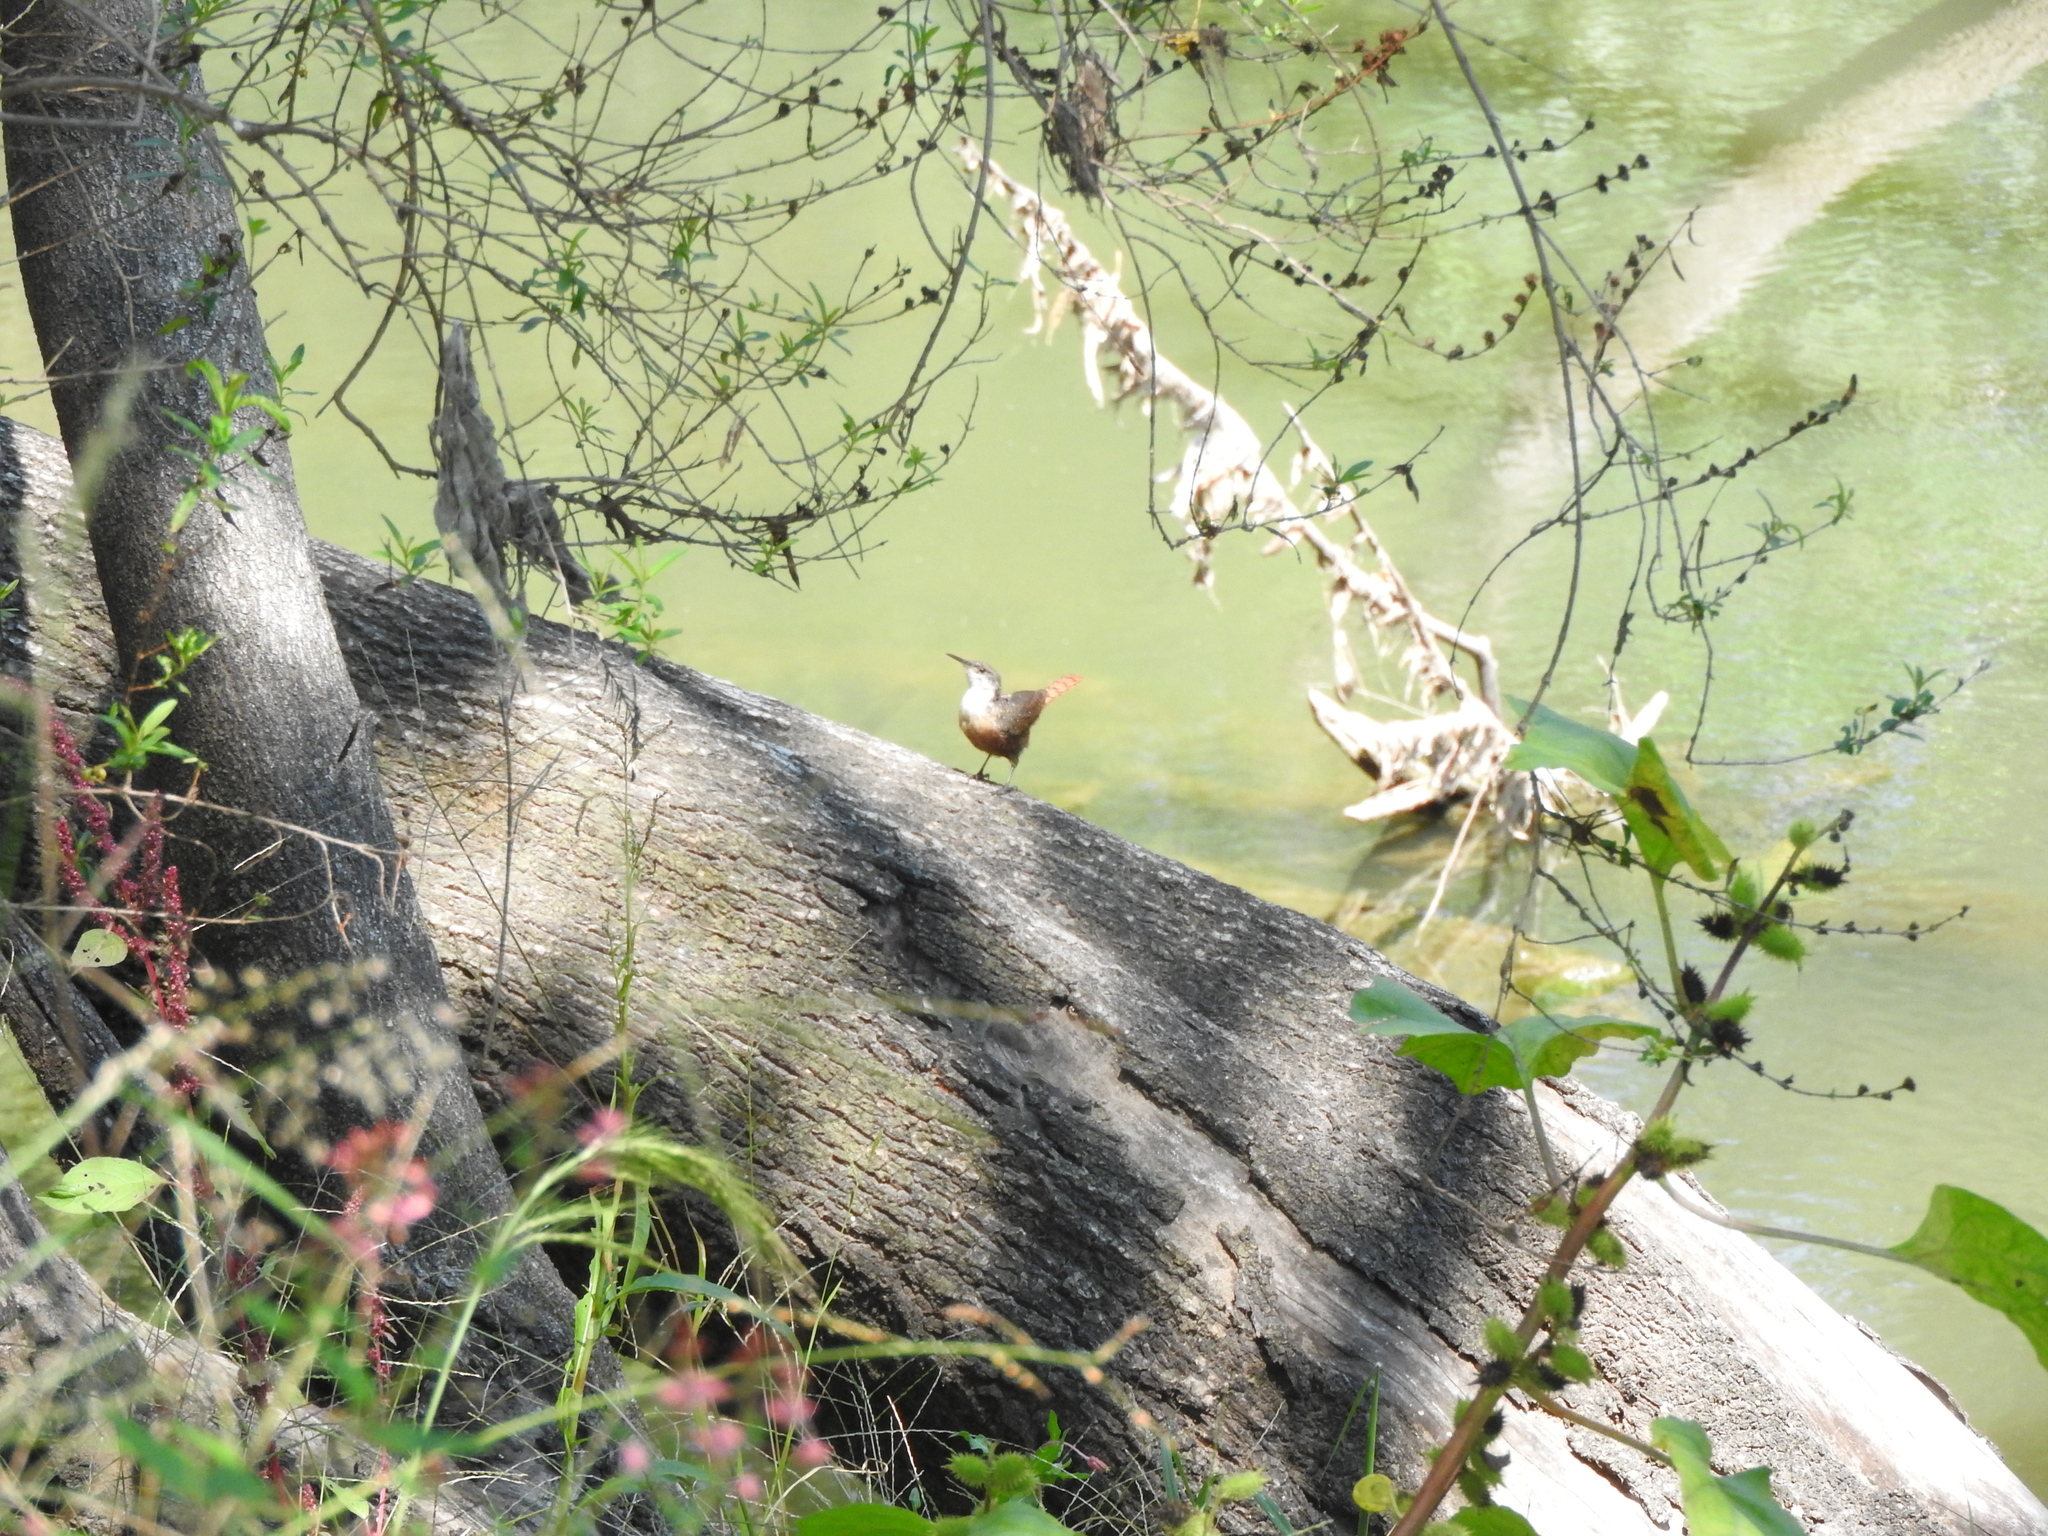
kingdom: Animalia
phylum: Chordata
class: Aves
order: Passeriformes
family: Troglodytidae
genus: Catherpes
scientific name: Catherpes mexicanus
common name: Canyon wren
